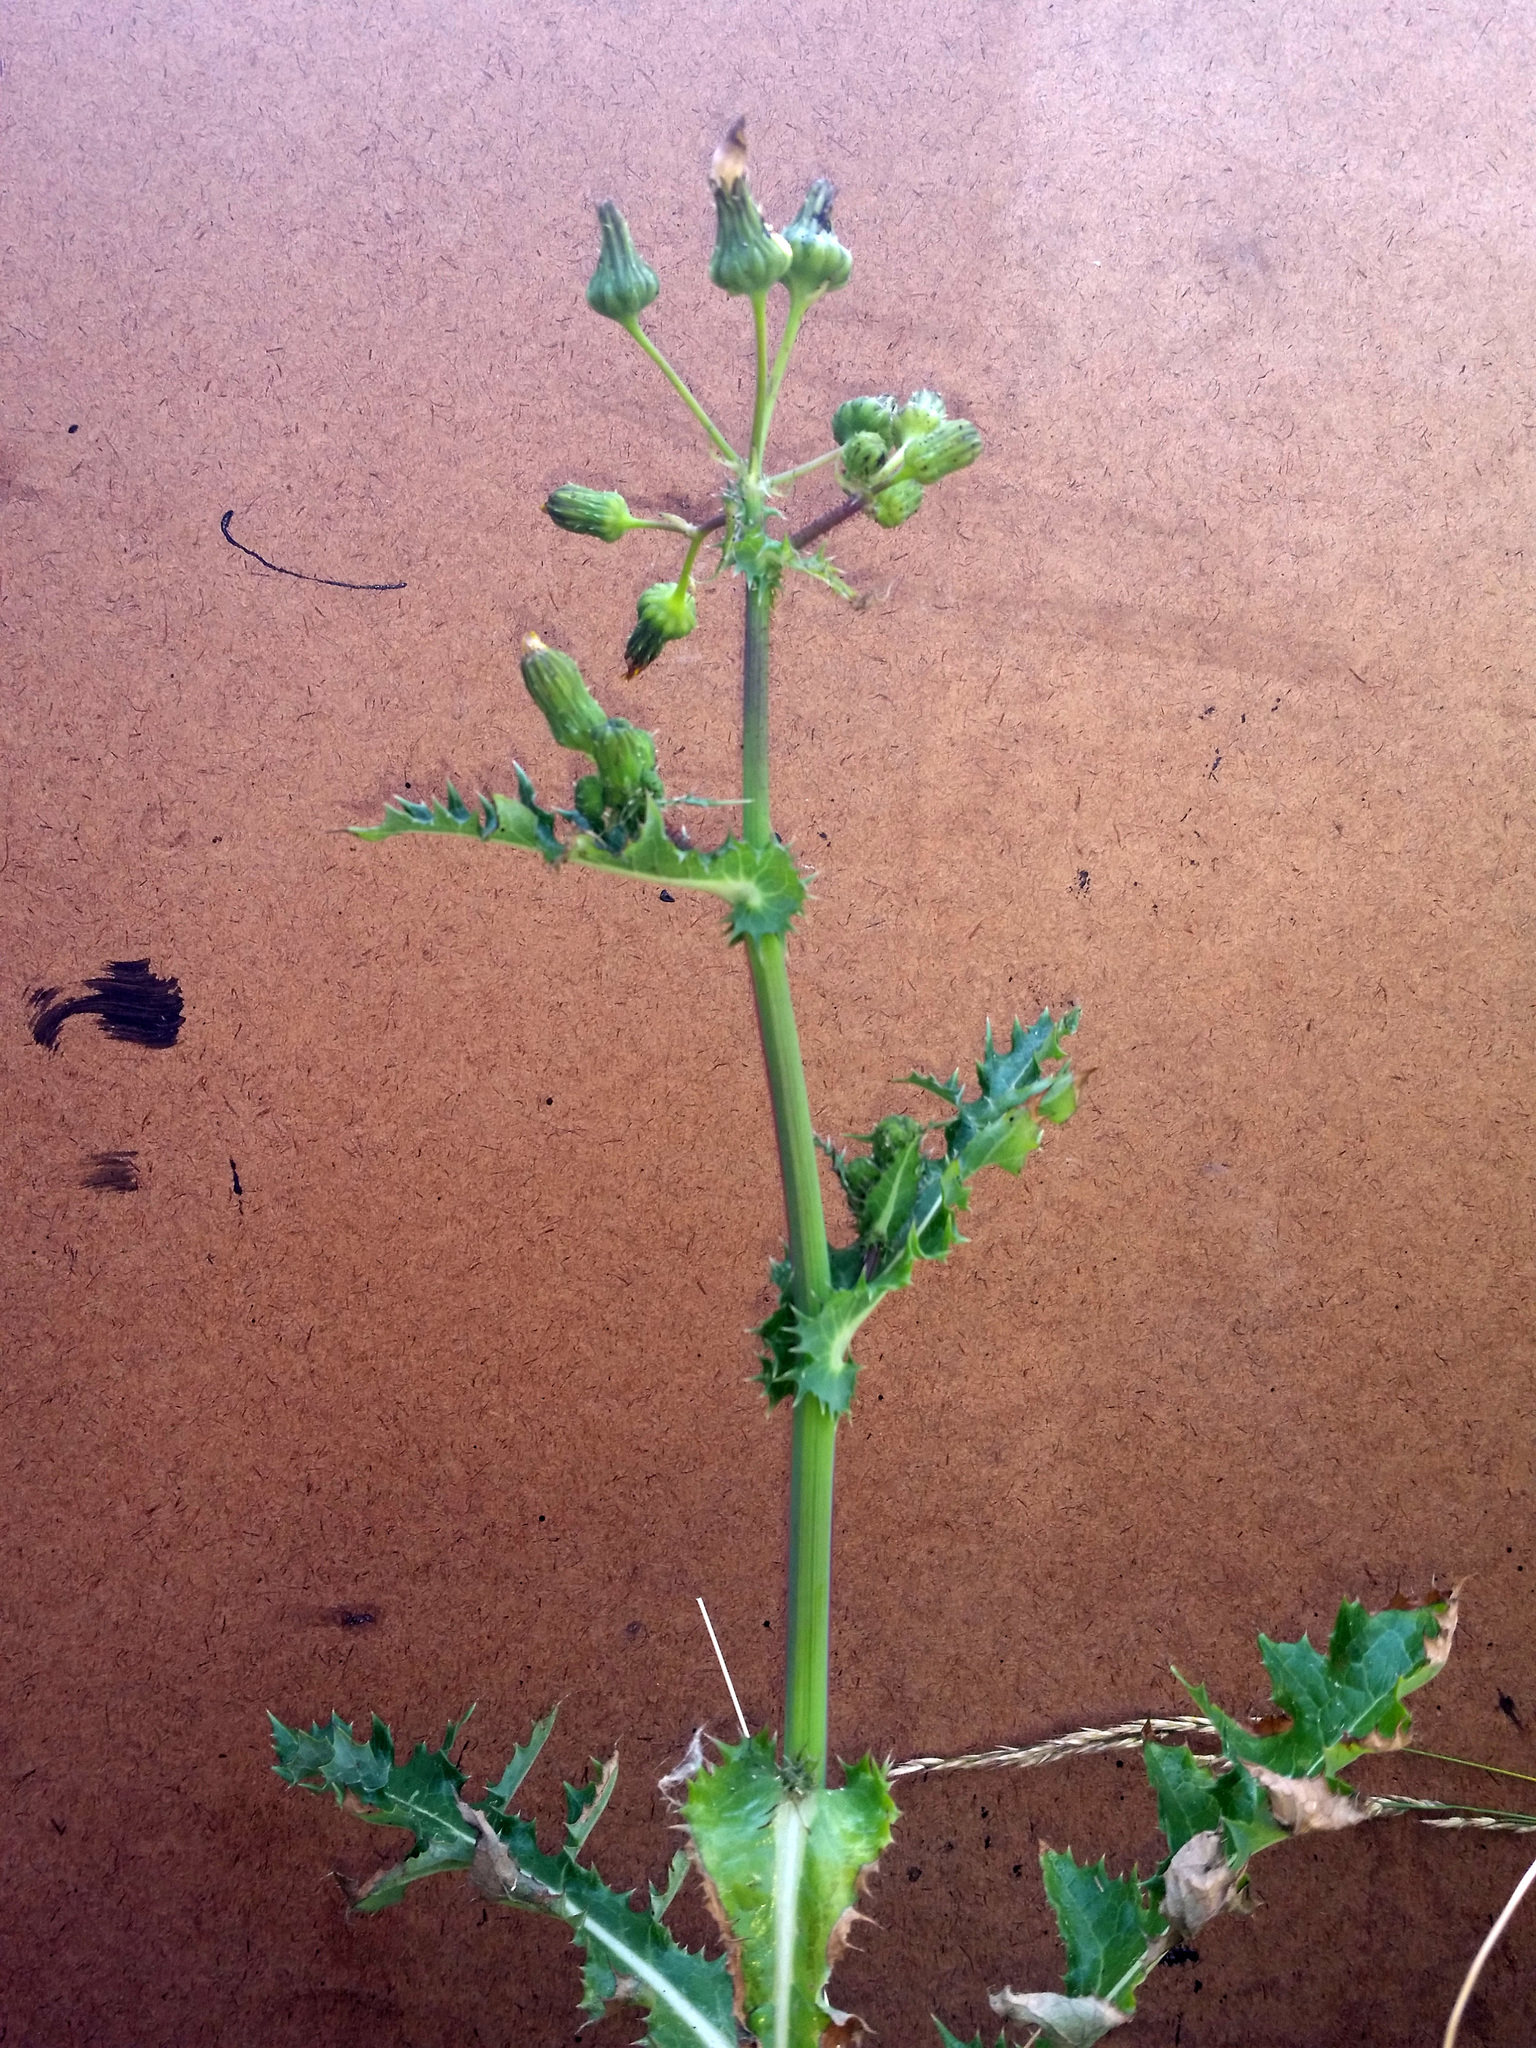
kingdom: Plantae
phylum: Tracheophyta
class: Magnoliopsida
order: Asterales
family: Asteraceae
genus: Sonchus
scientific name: Sonchus asper
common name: Prickly sow-thistle
